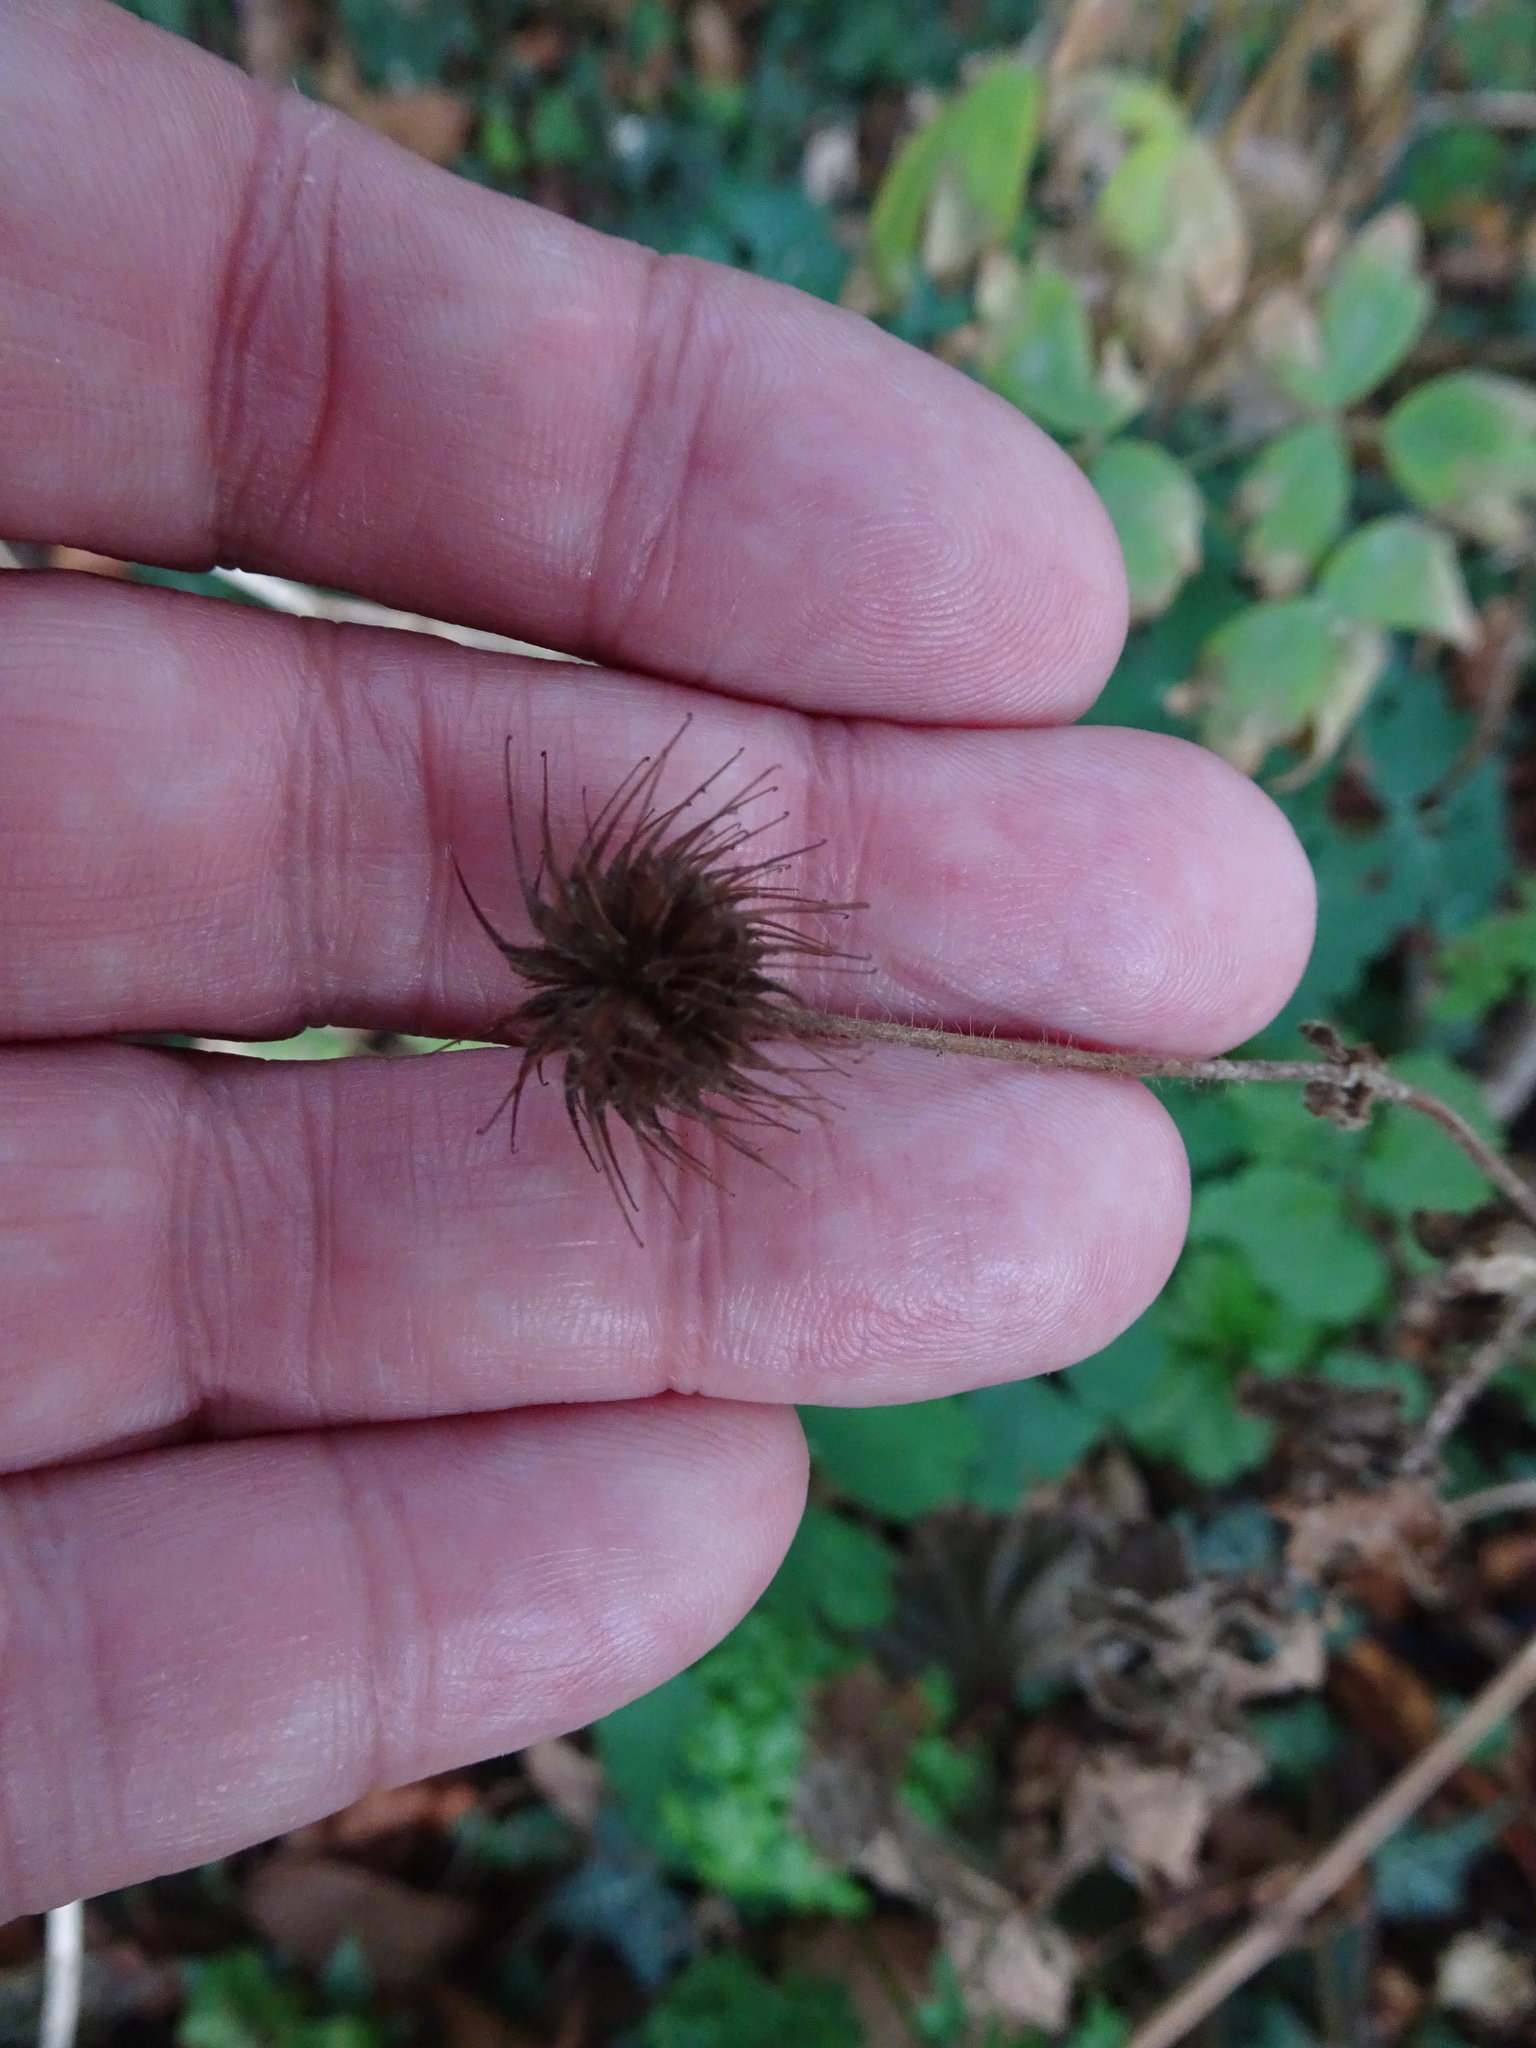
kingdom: Plantae
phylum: Tracheophyta
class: Magnoliopsida
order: Rosales
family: Rosaceae
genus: Geum
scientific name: Geum urbanum
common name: Wood avens
